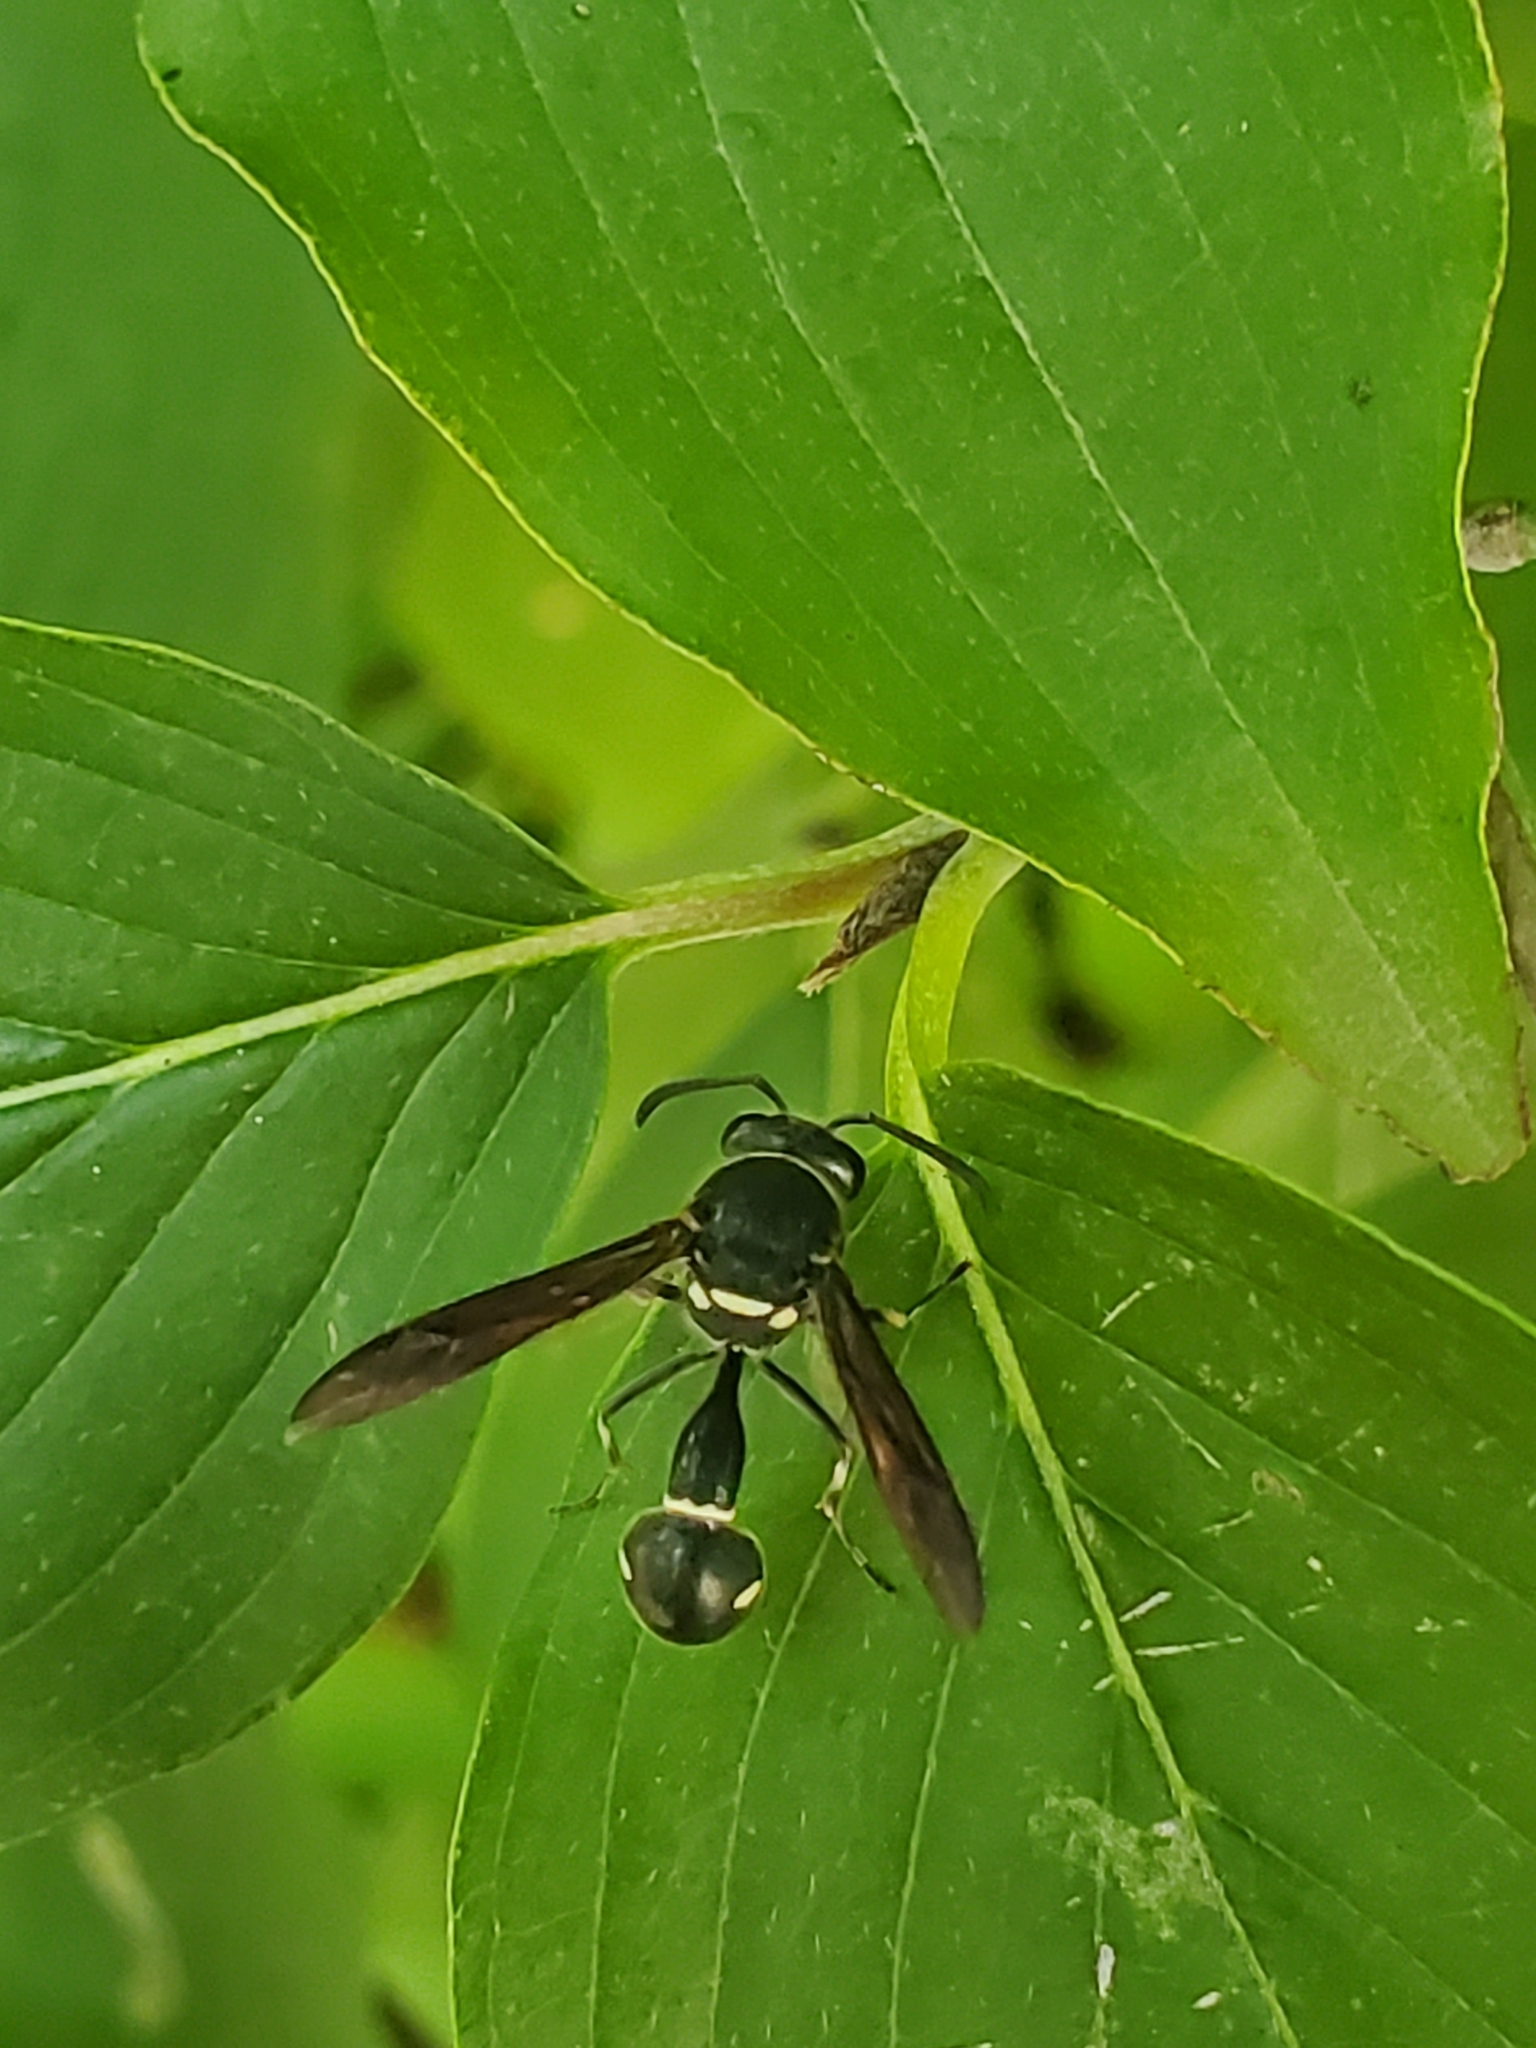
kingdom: Animalia
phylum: Arthropoda
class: Insecta
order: Hymenoptera
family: Vespidae
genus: Eumenes
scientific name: Eumenes fraternus
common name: Fraternal potter wasp
